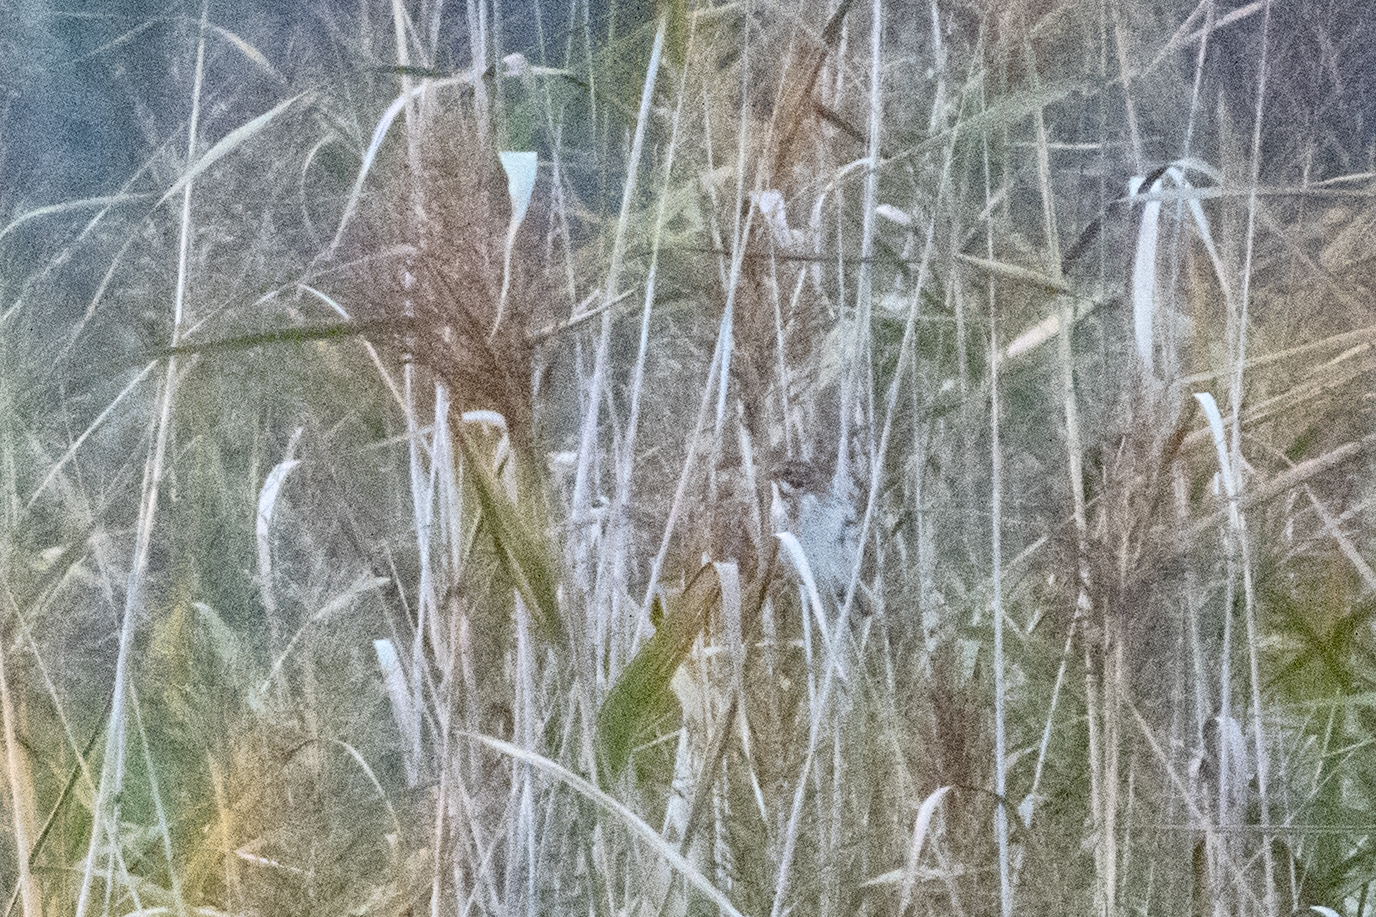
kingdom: Animalia
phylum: Chordata
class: Aves
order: Passeriformes
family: Emberizidae
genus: Emberiza
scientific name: Emberiza schoeniclus
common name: Reed bunting
